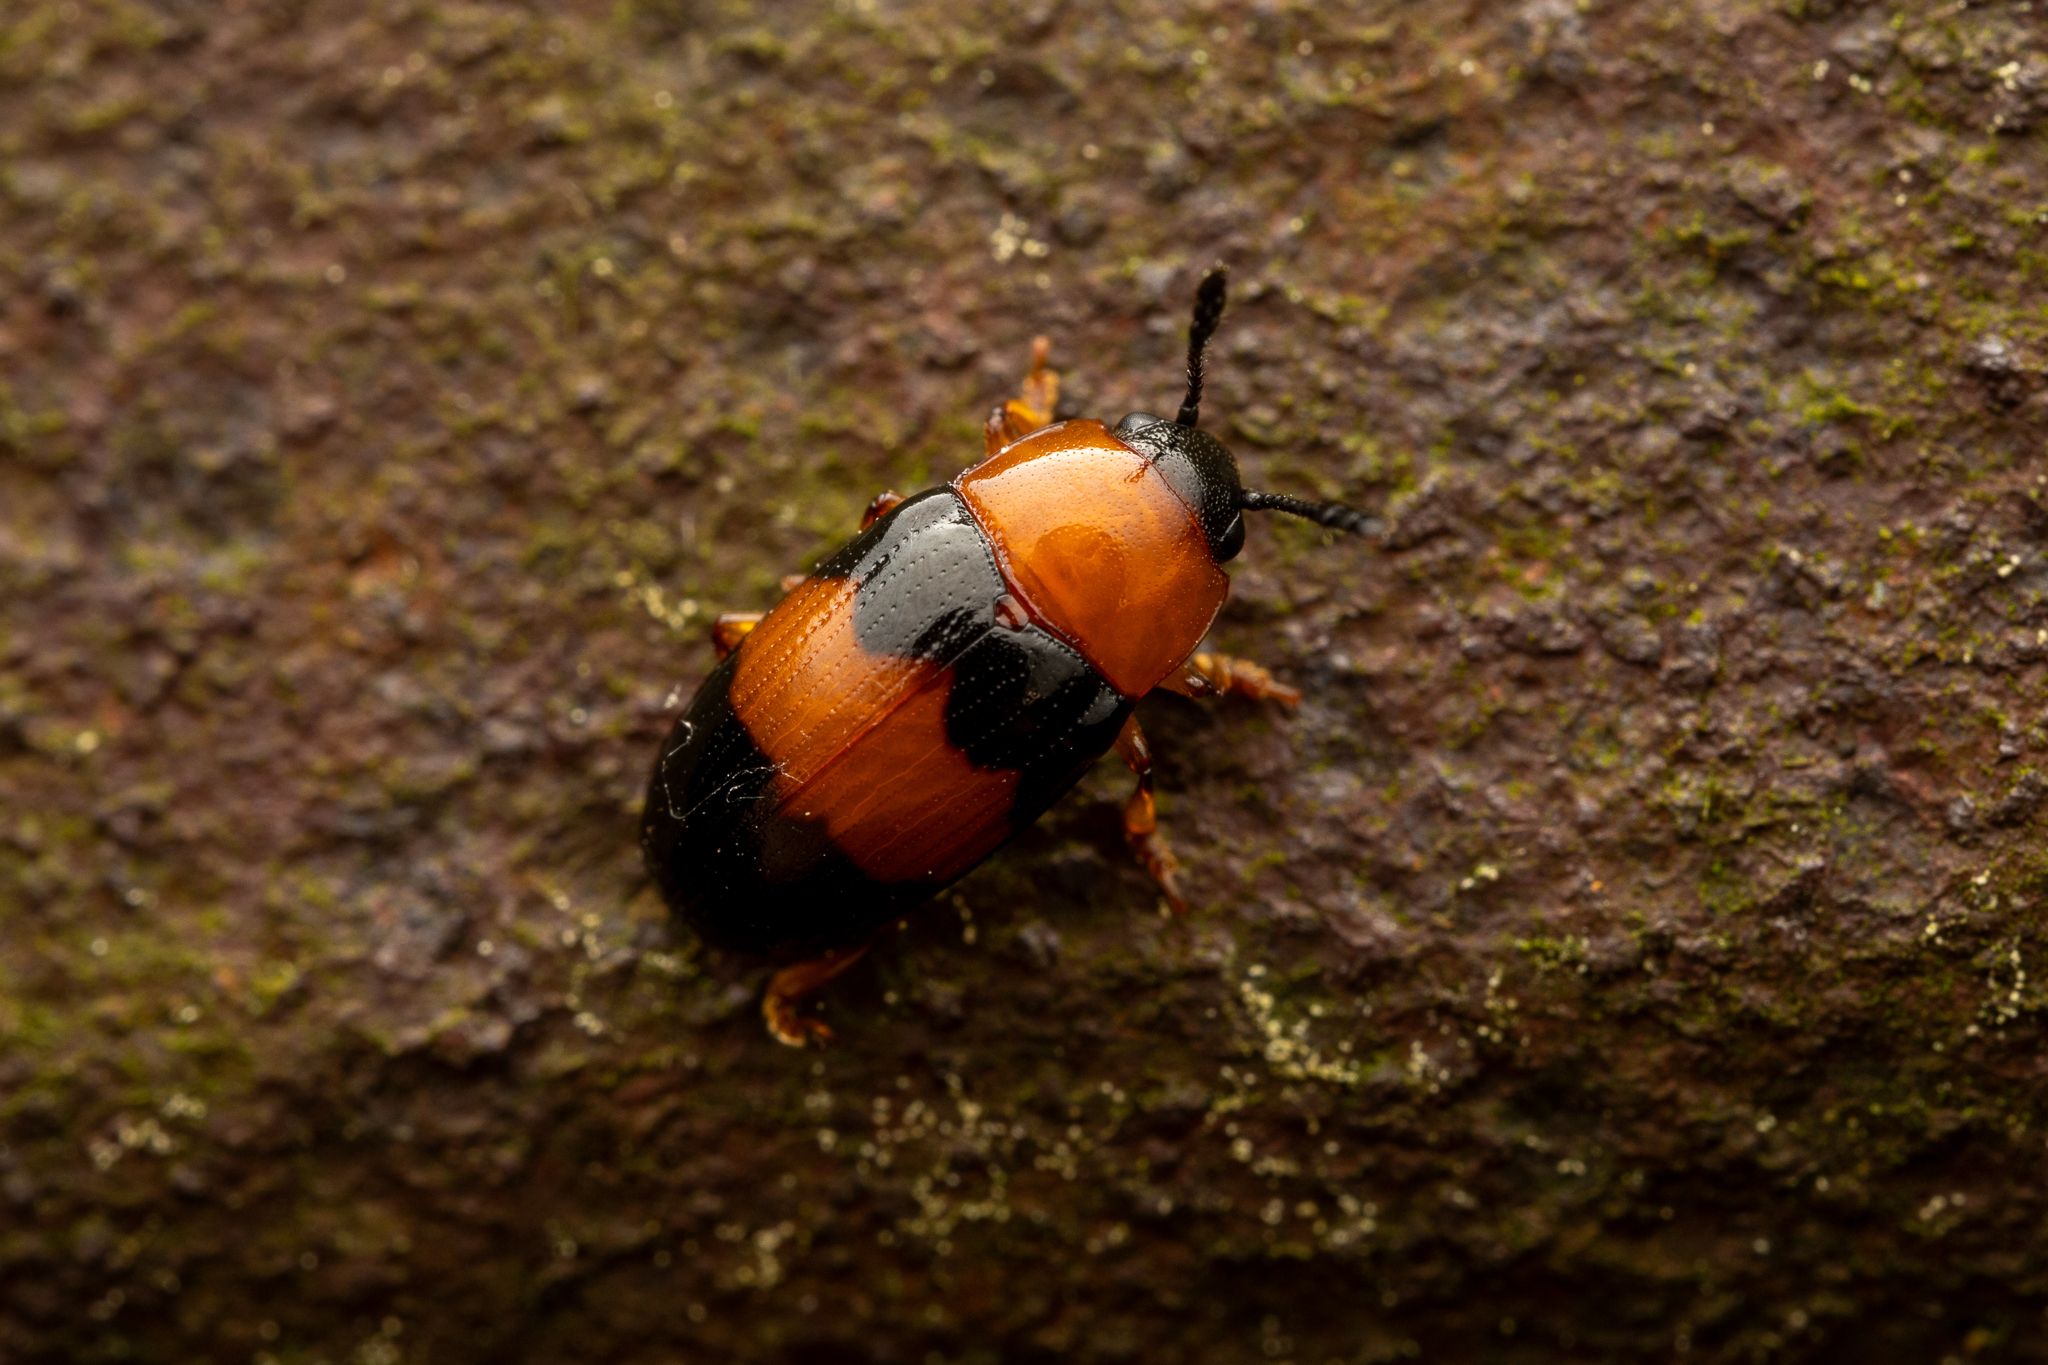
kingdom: Animalia
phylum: Arthropoda
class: Insecta
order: Coleoptera
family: Erotylidae
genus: Triplax
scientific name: Triplax festiva
